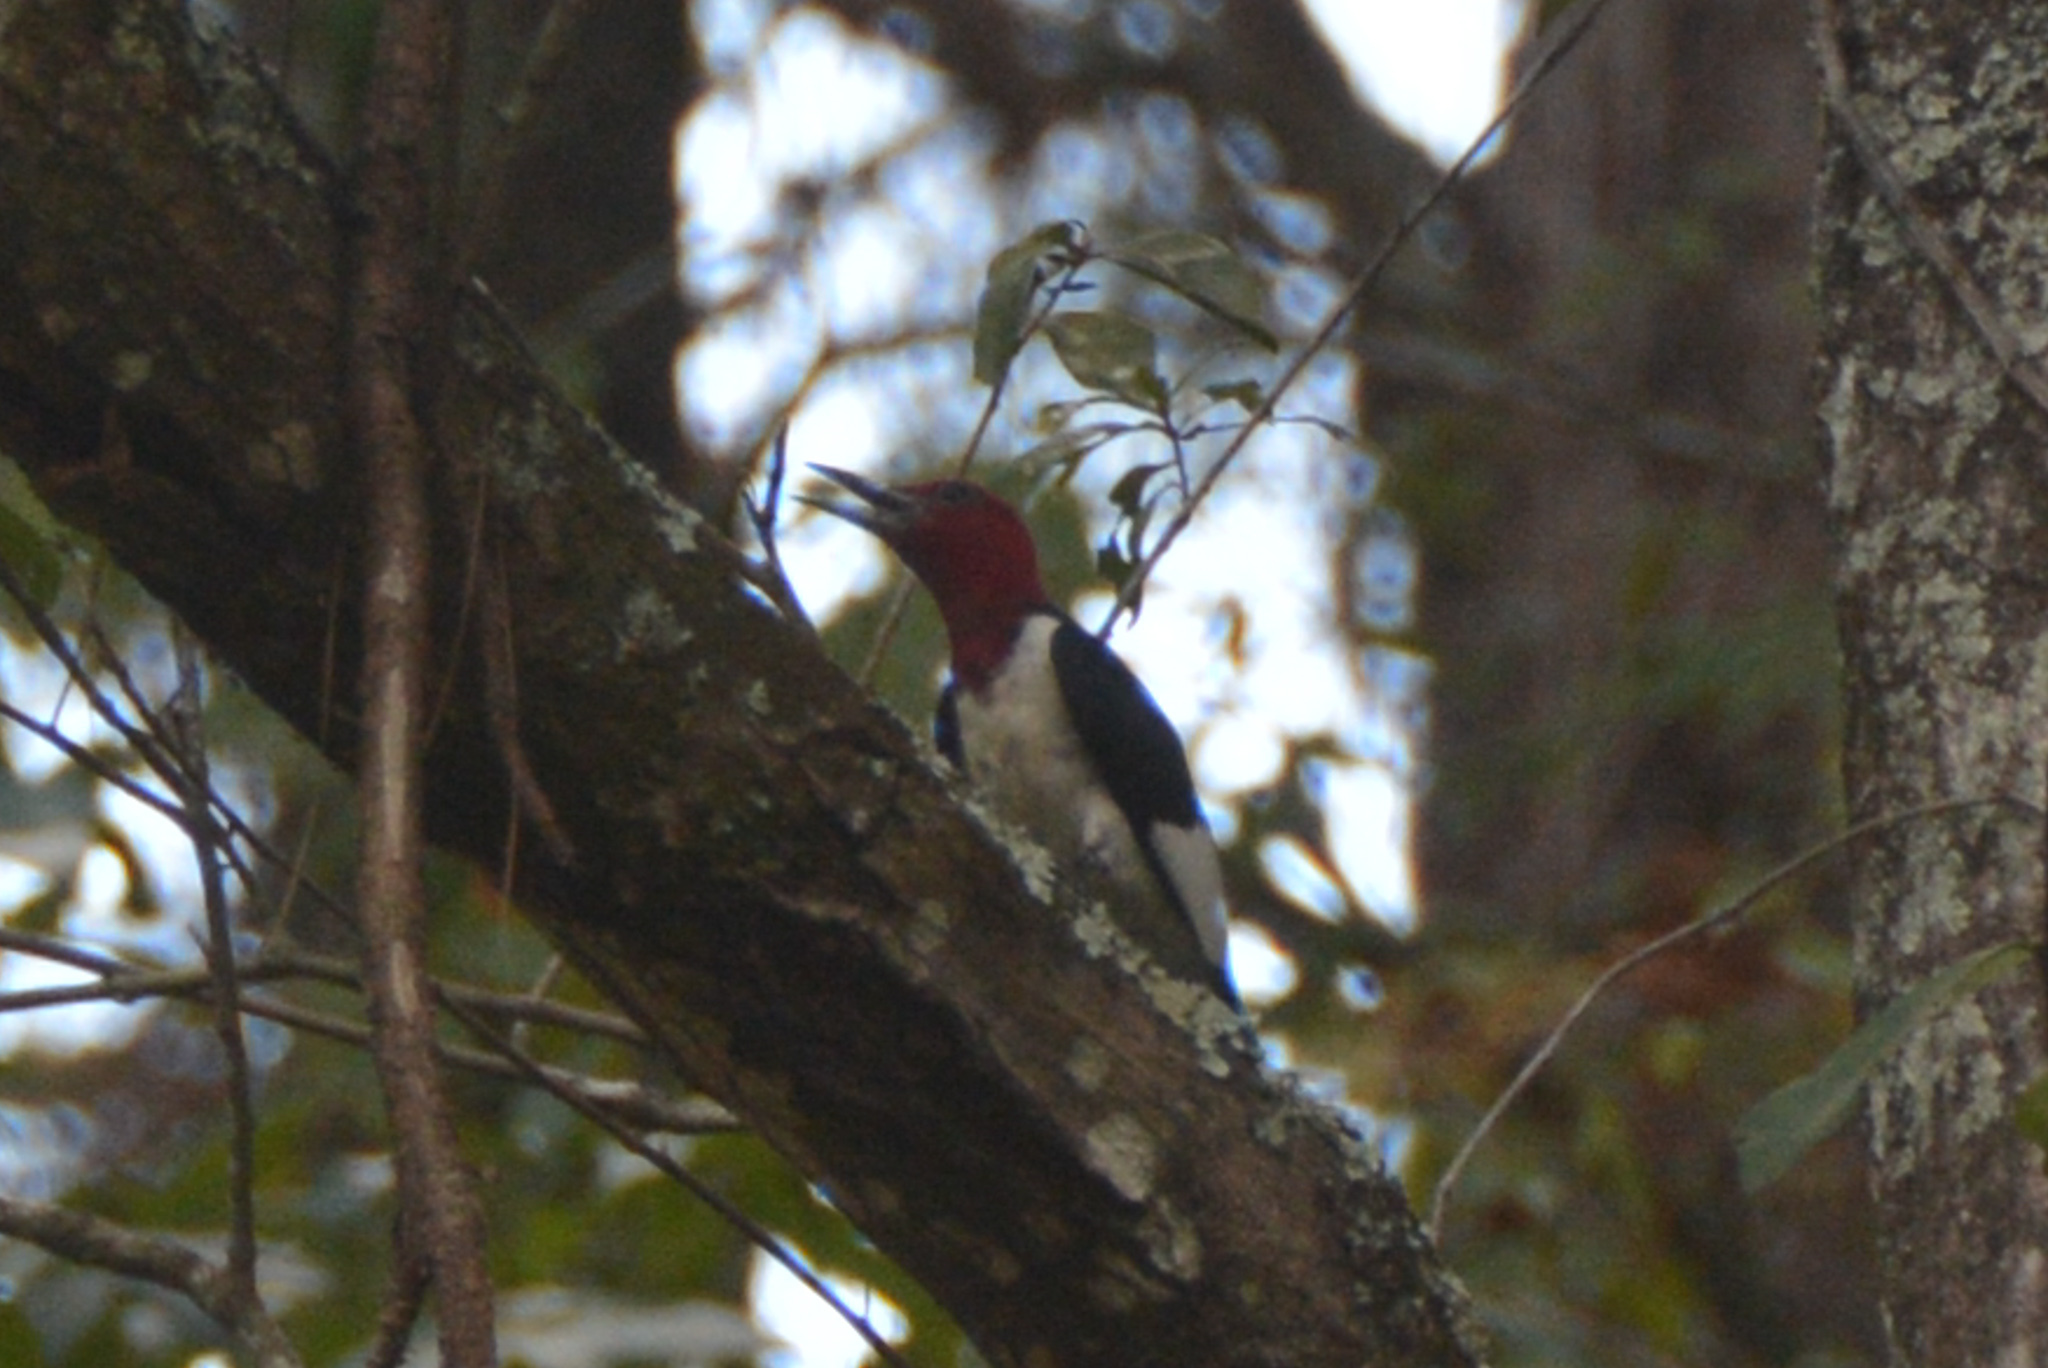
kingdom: Animalia
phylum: Chordata
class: Aves
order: Piciformes
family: Picidae
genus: Melanerpes
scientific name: Melanerpes erythrocephalus
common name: Red-headed woodpecker
